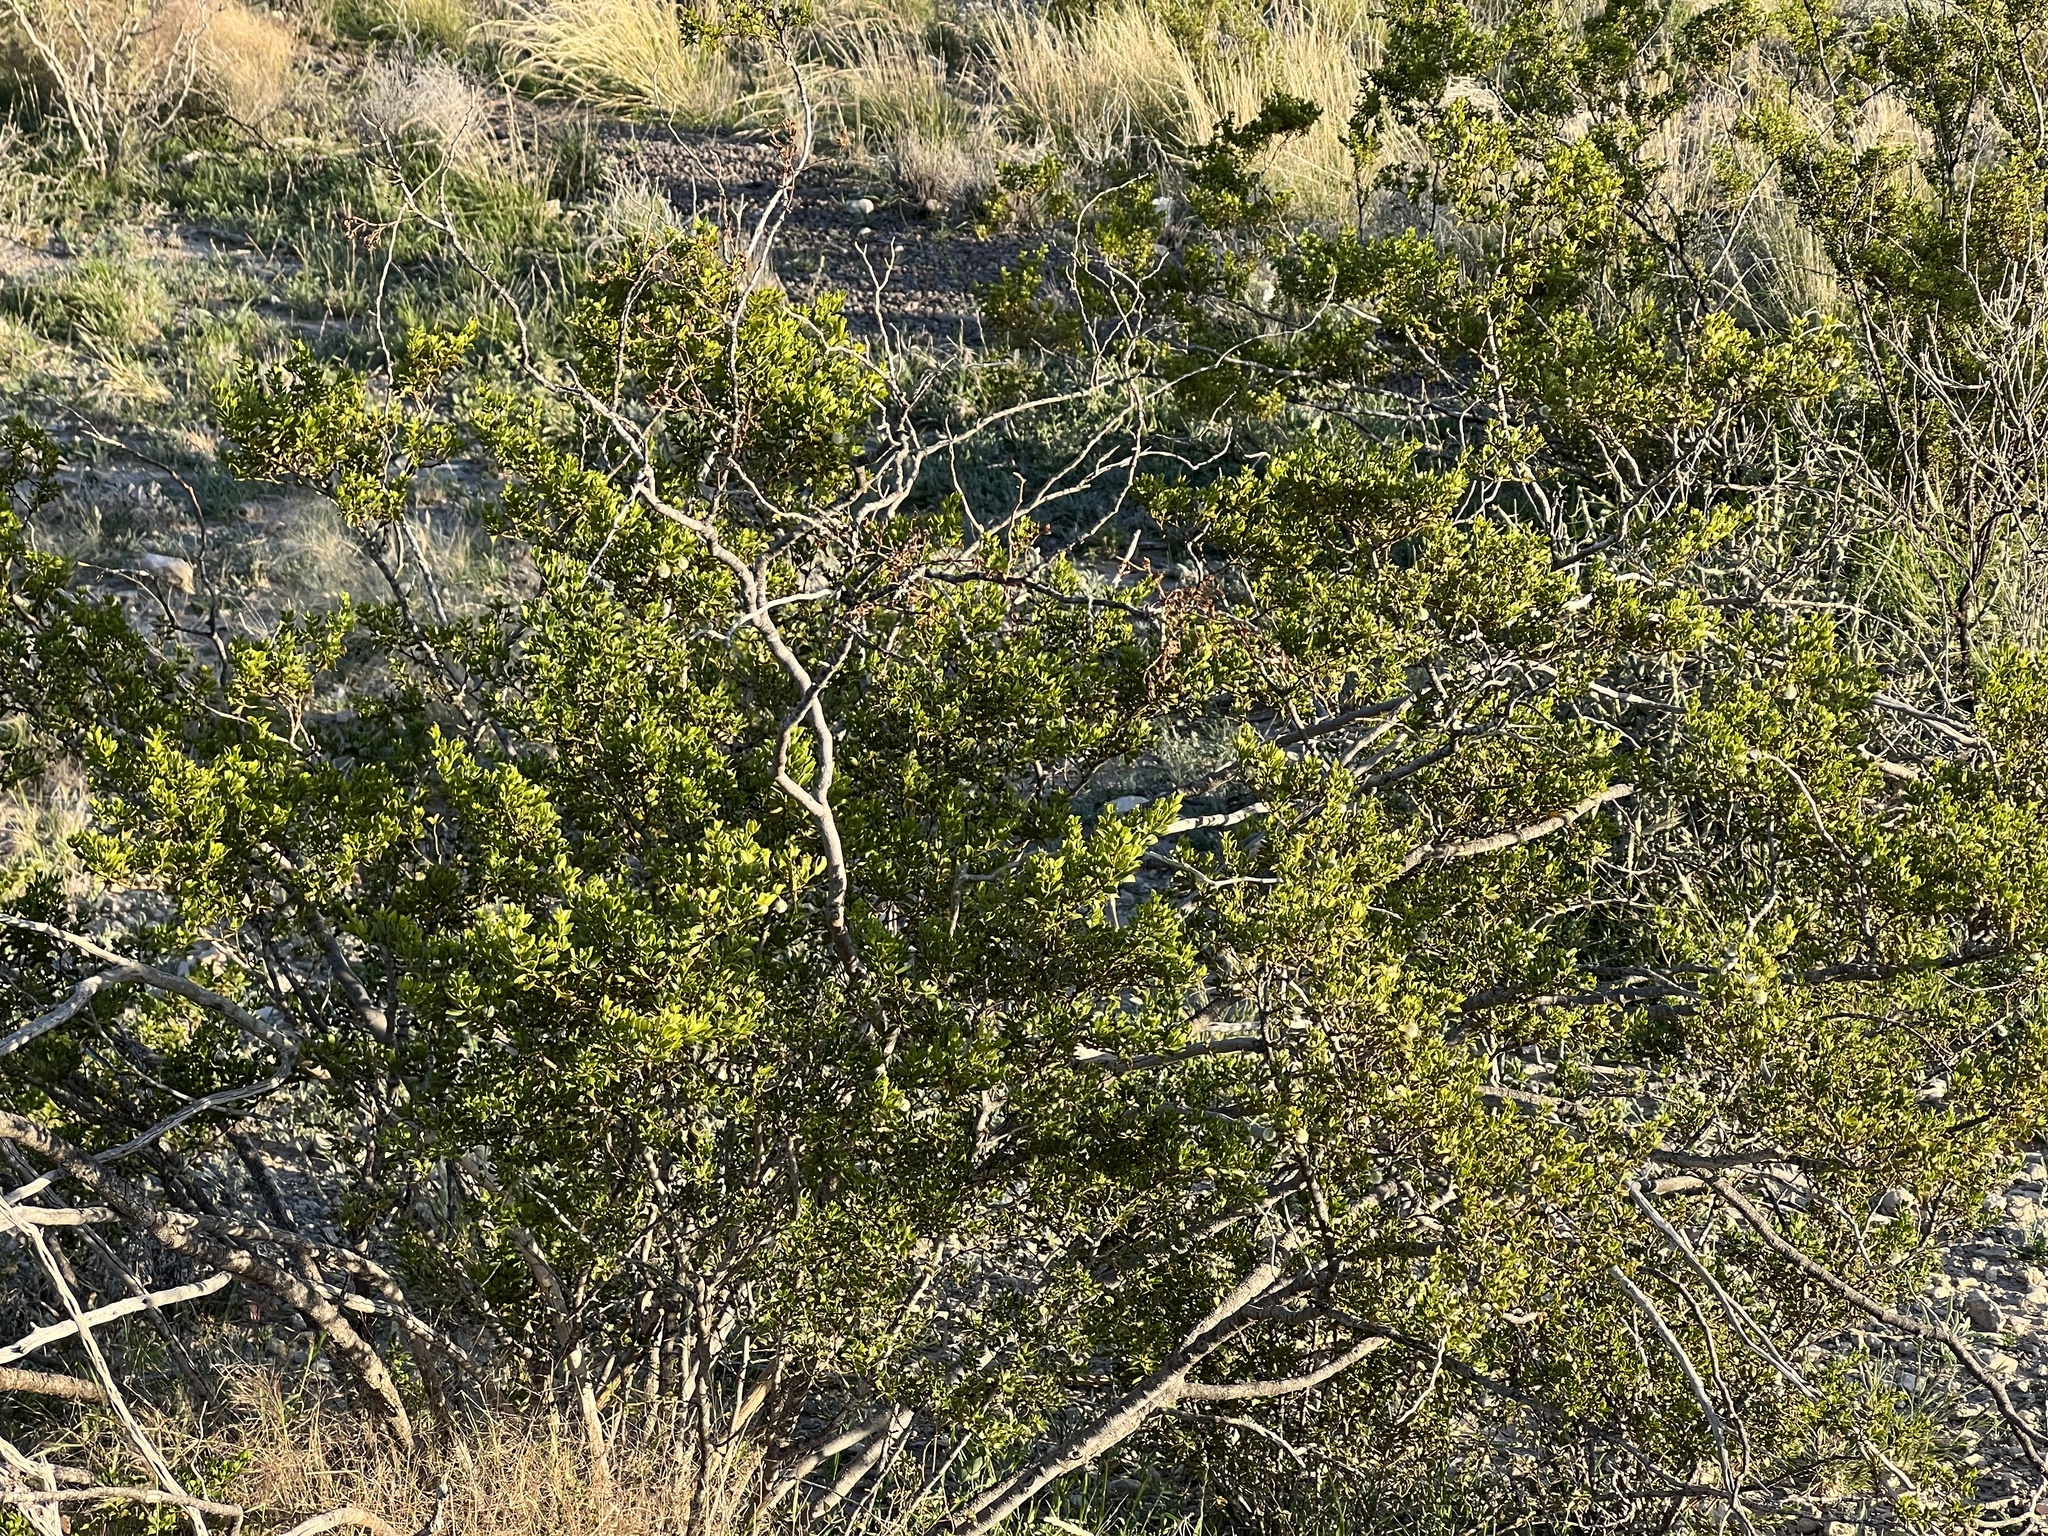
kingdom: Plantae
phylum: Tracheophyta
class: Magnoliopsida
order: Zygophyllales
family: Zygophyllaceae
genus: Larrea
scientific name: Larrea tridentata
